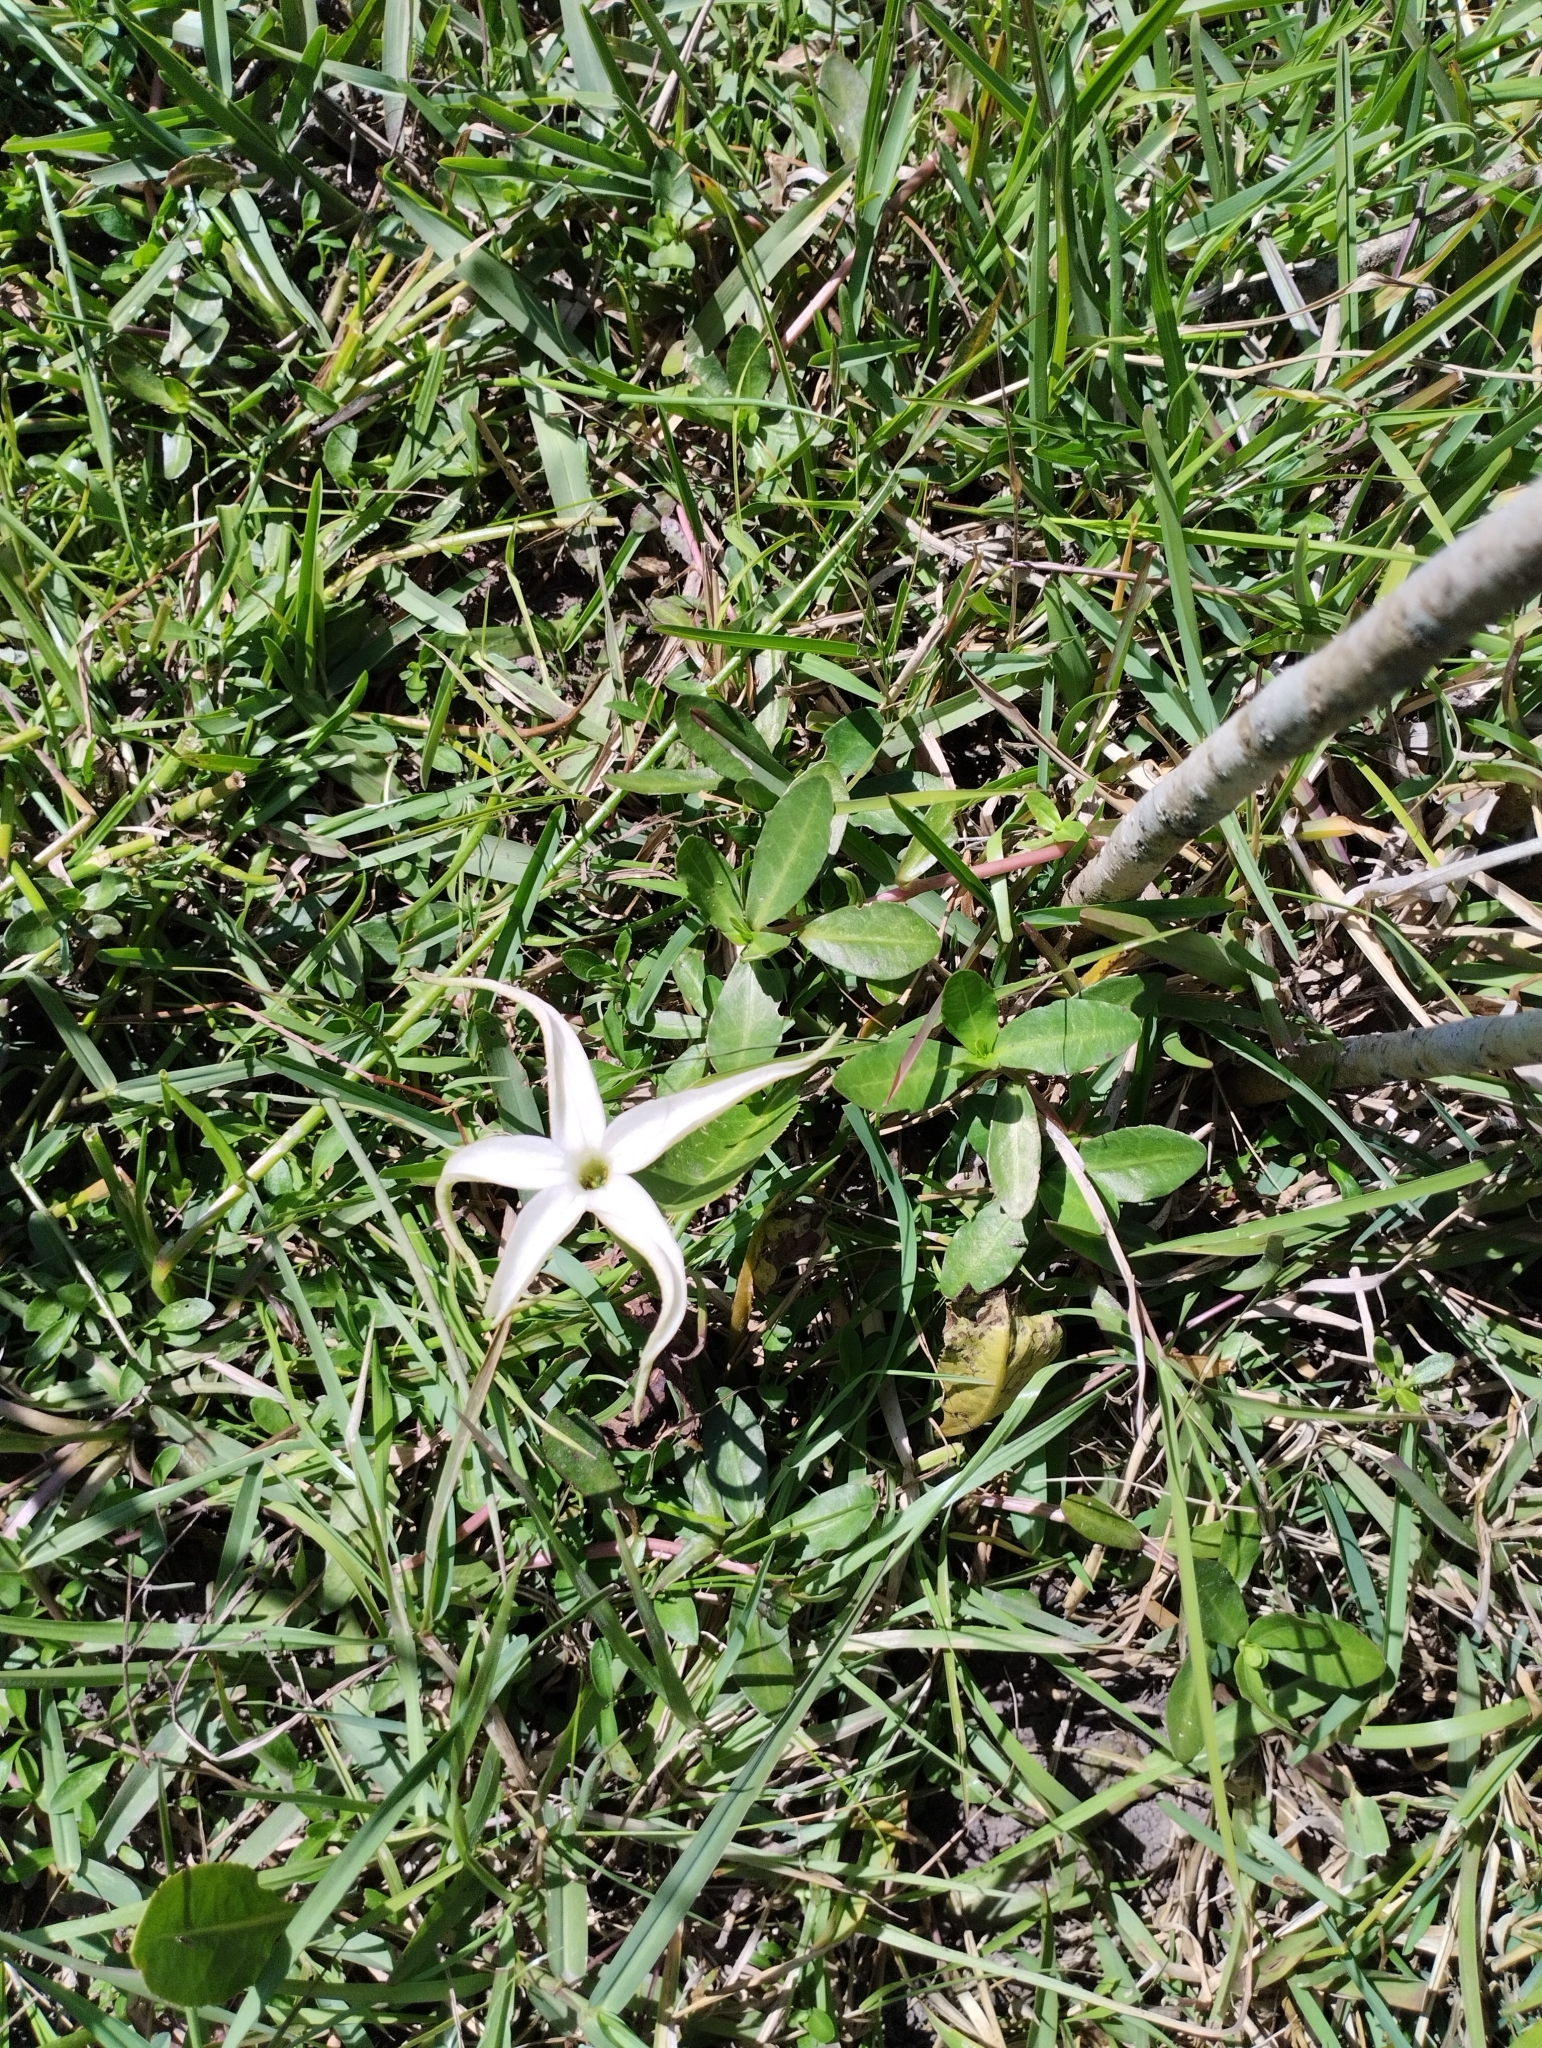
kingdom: Plantae
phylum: Tracheophyta
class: Magnoliopsida
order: Solanales
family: Solanaceae
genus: Jaborosa
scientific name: Jaborosa integrifolia
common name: Springblossom
